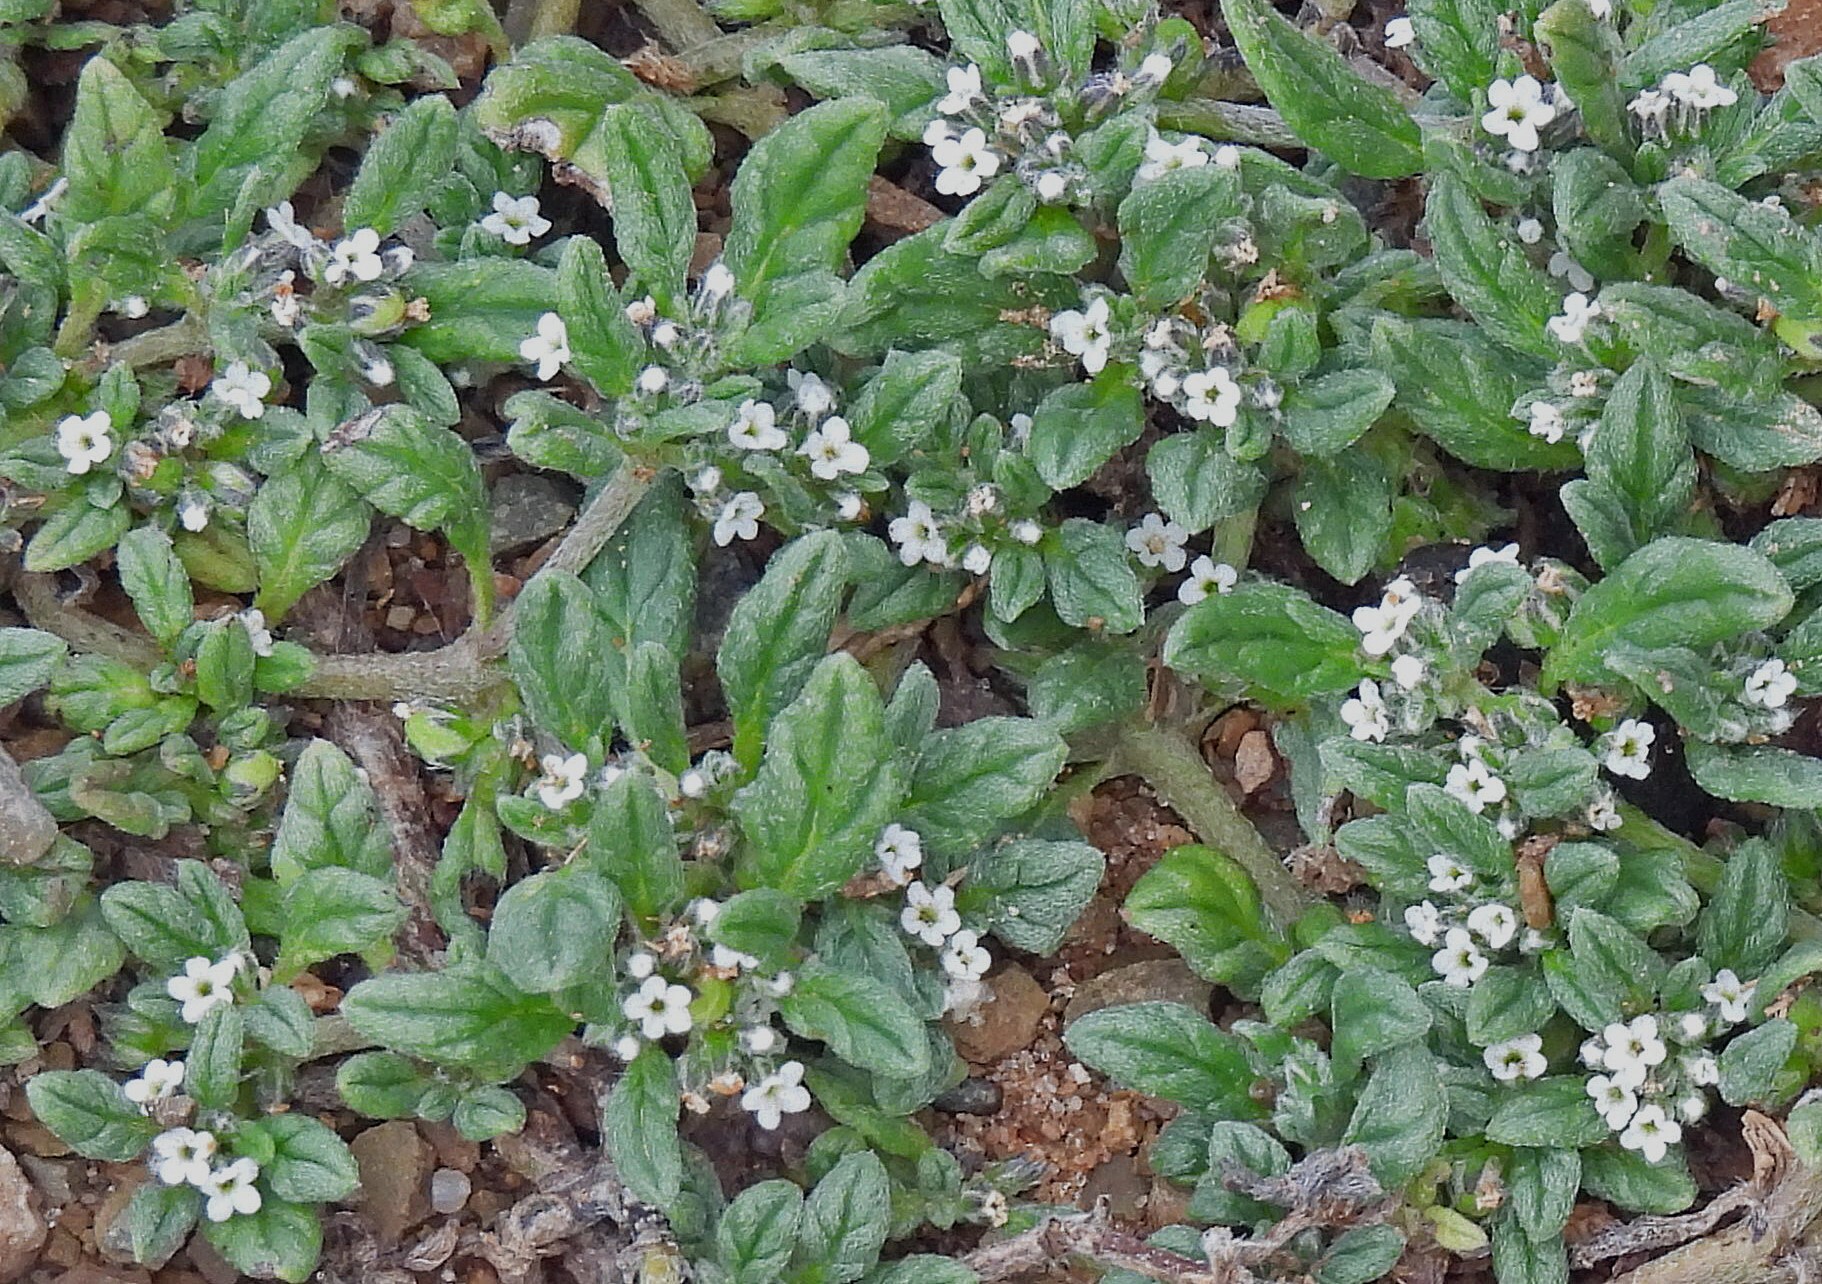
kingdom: Plantae
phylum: Tracheophyta
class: Magnoliopsida
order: Boraginales
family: Heliotropiaceae
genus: Heliotropium
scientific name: Heliotropium microstachyum
